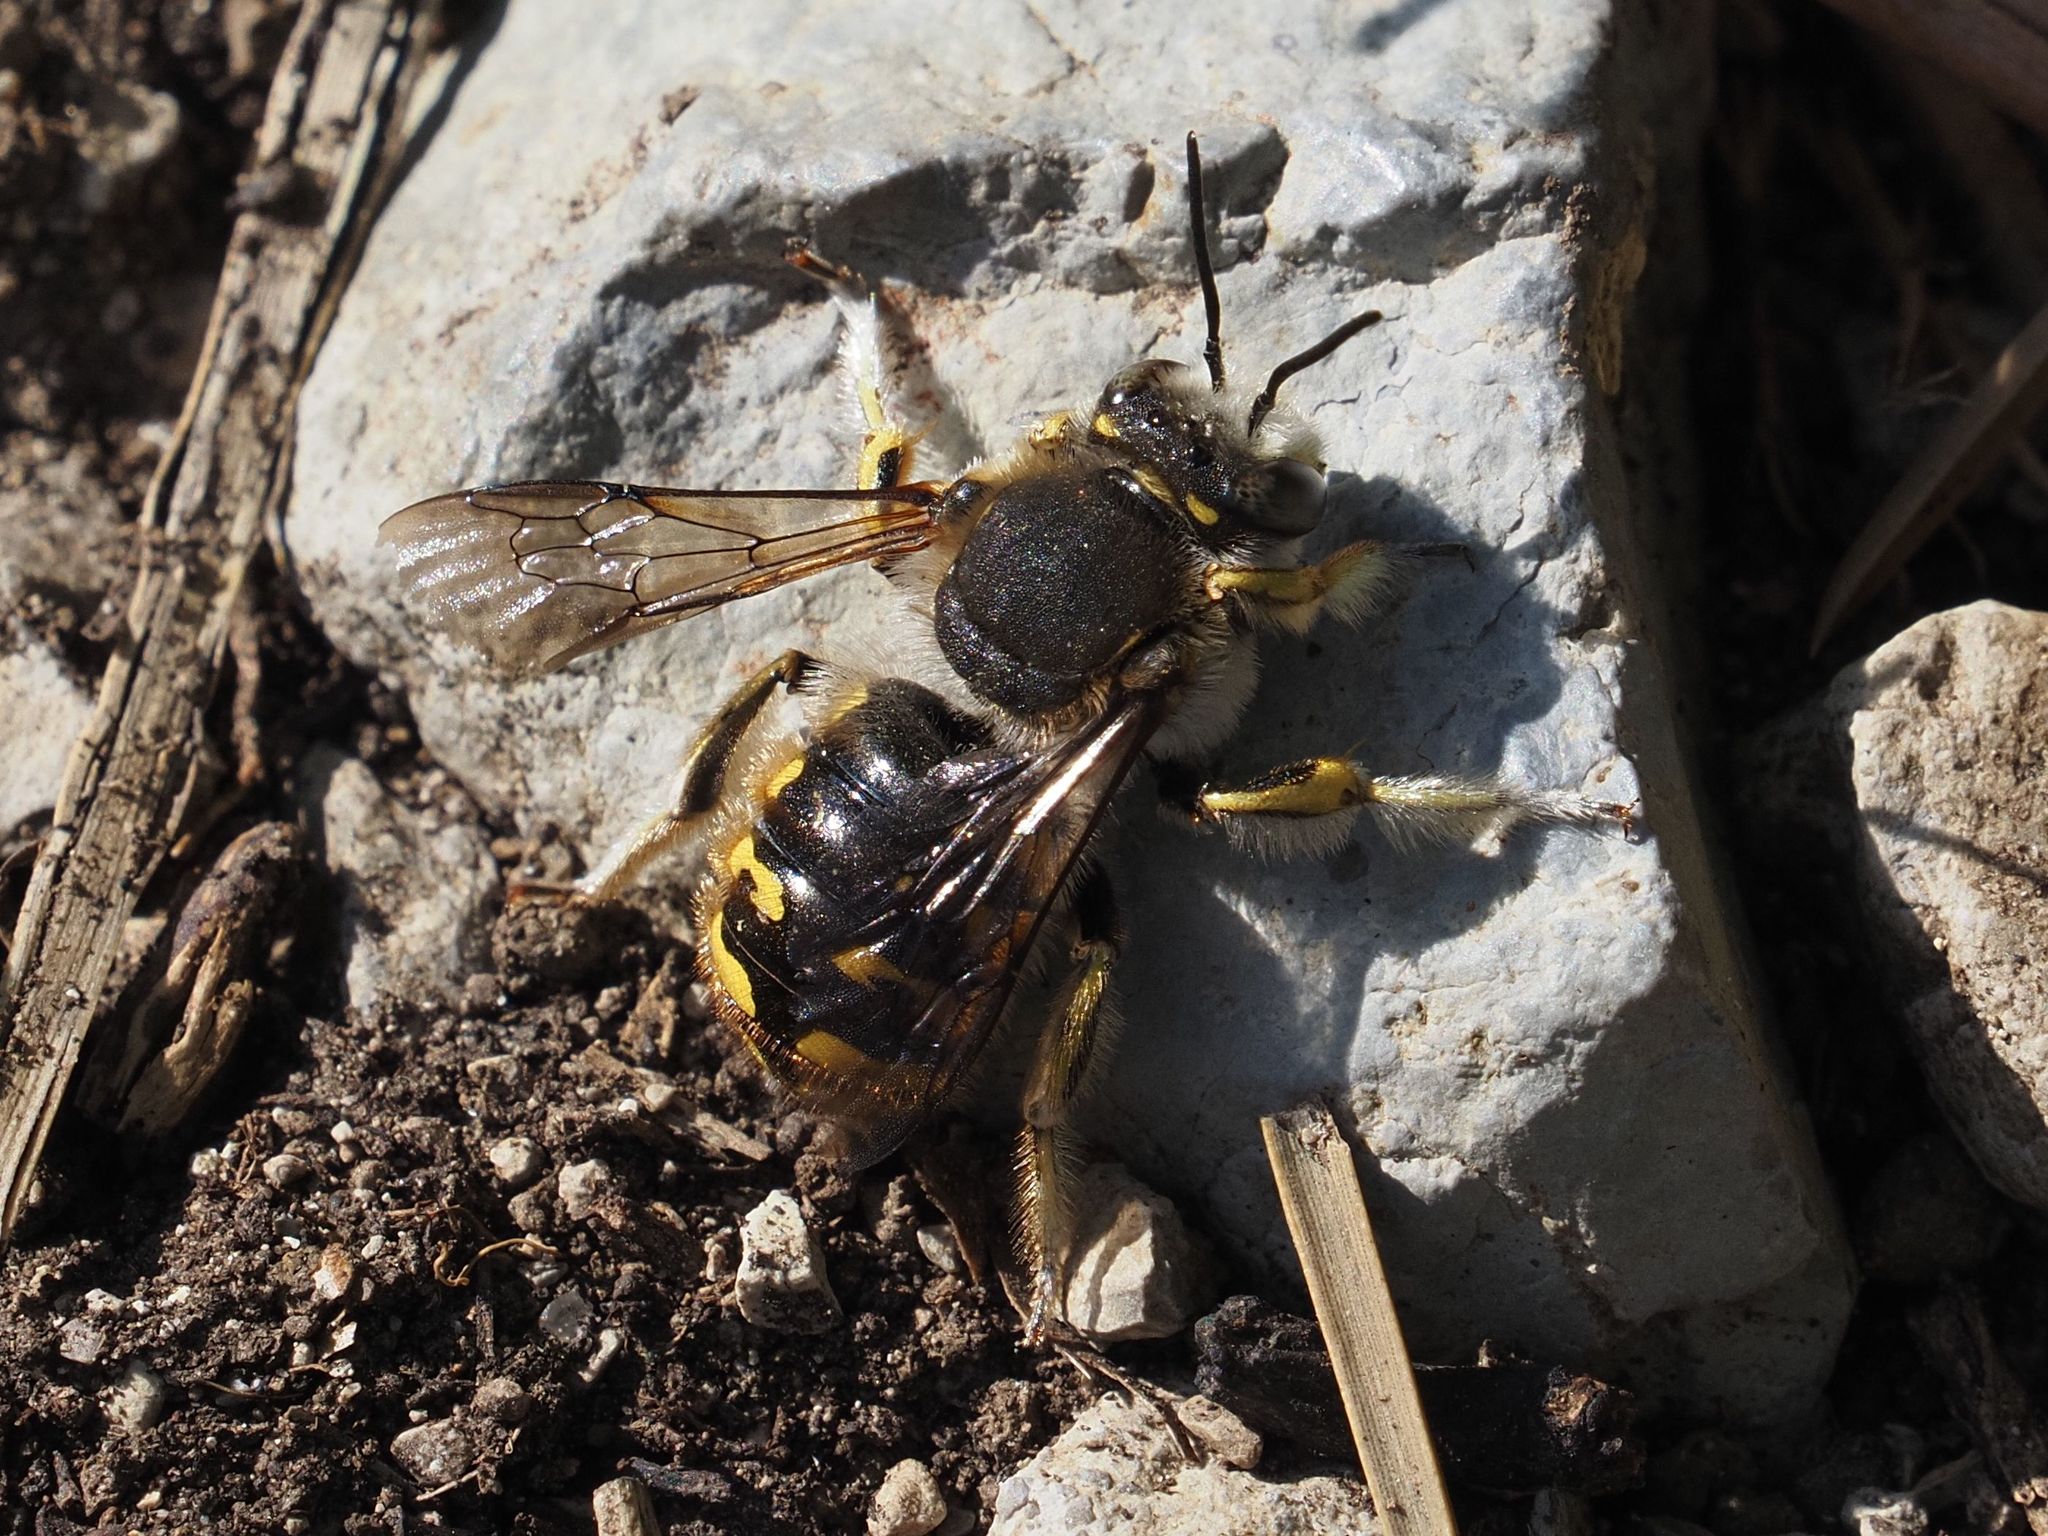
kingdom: Animalia
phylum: Arthropoda
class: Insecta
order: Hymenoptera
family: Megachilidae
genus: Anthidium
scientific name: Anthidium manicatum
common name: Wool carder bee
